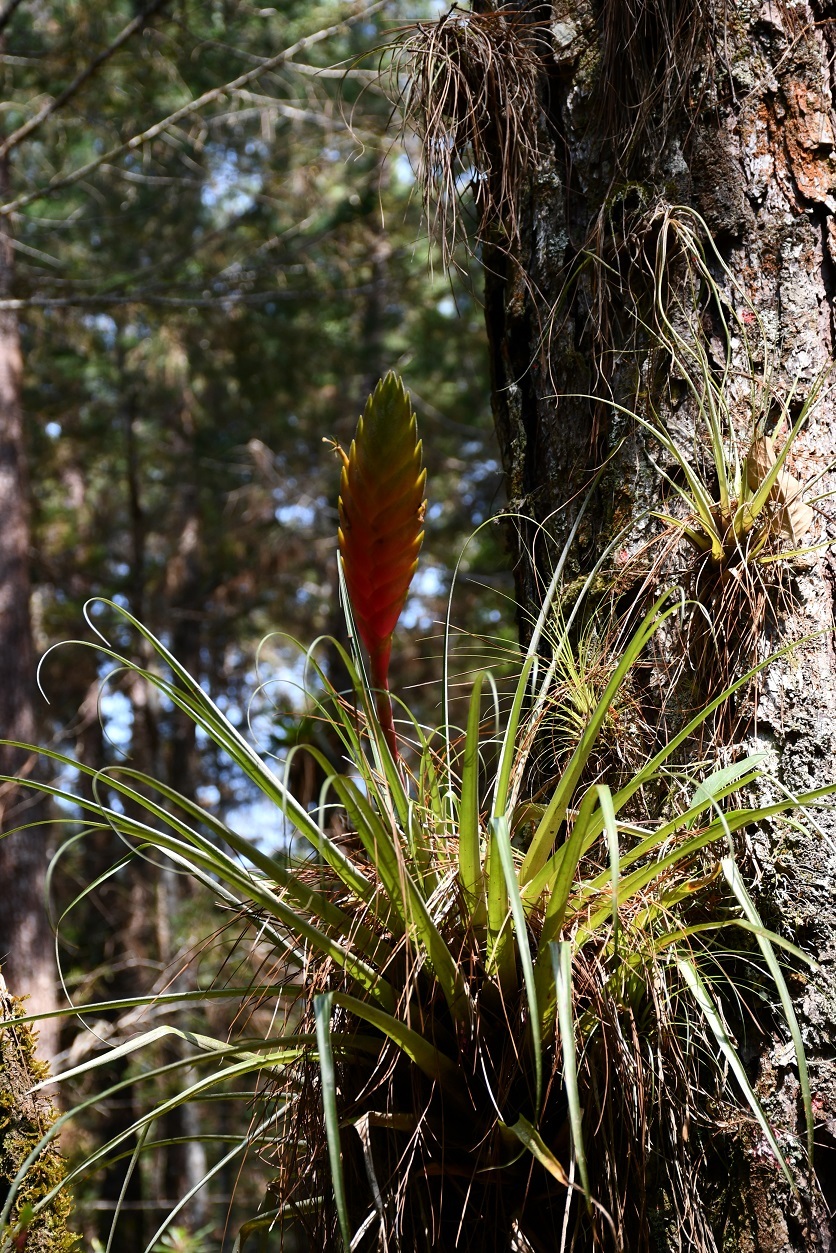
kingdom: Plantae
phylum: Tracheophyta
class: Liliopsida
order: Poales
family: Bromeliaceae
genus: Tillandsia
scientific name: Tillandsia lampropoda
